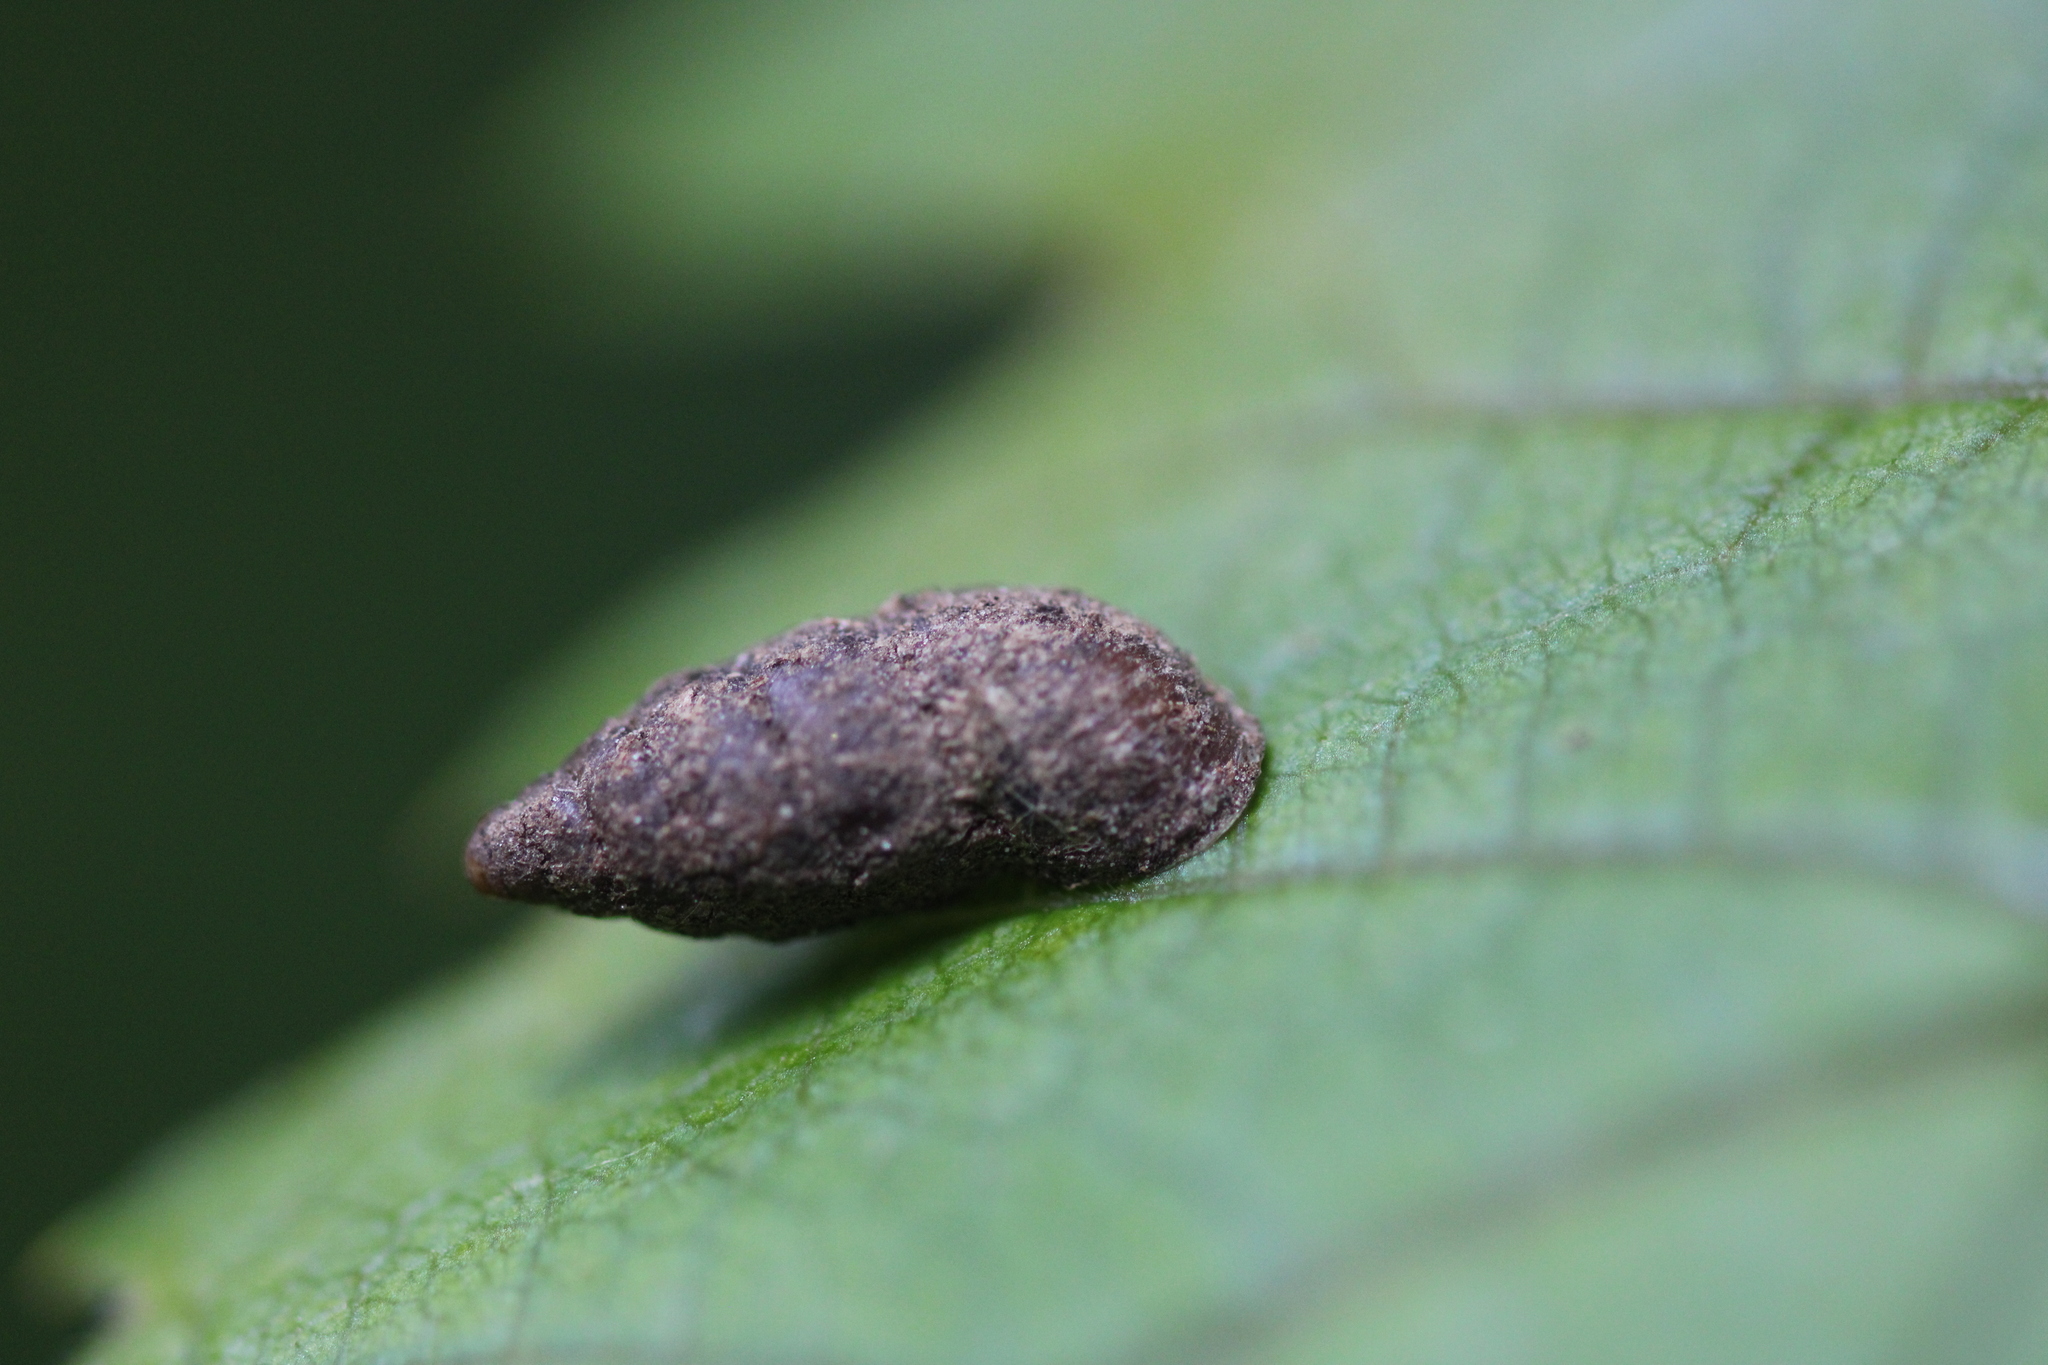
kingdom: Animalia
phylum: Mollusca
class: Gastropoda
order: Stylommatophora
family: Enidae
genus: Merdigera
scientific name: Merdigera obscura
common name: Lesser bulin
